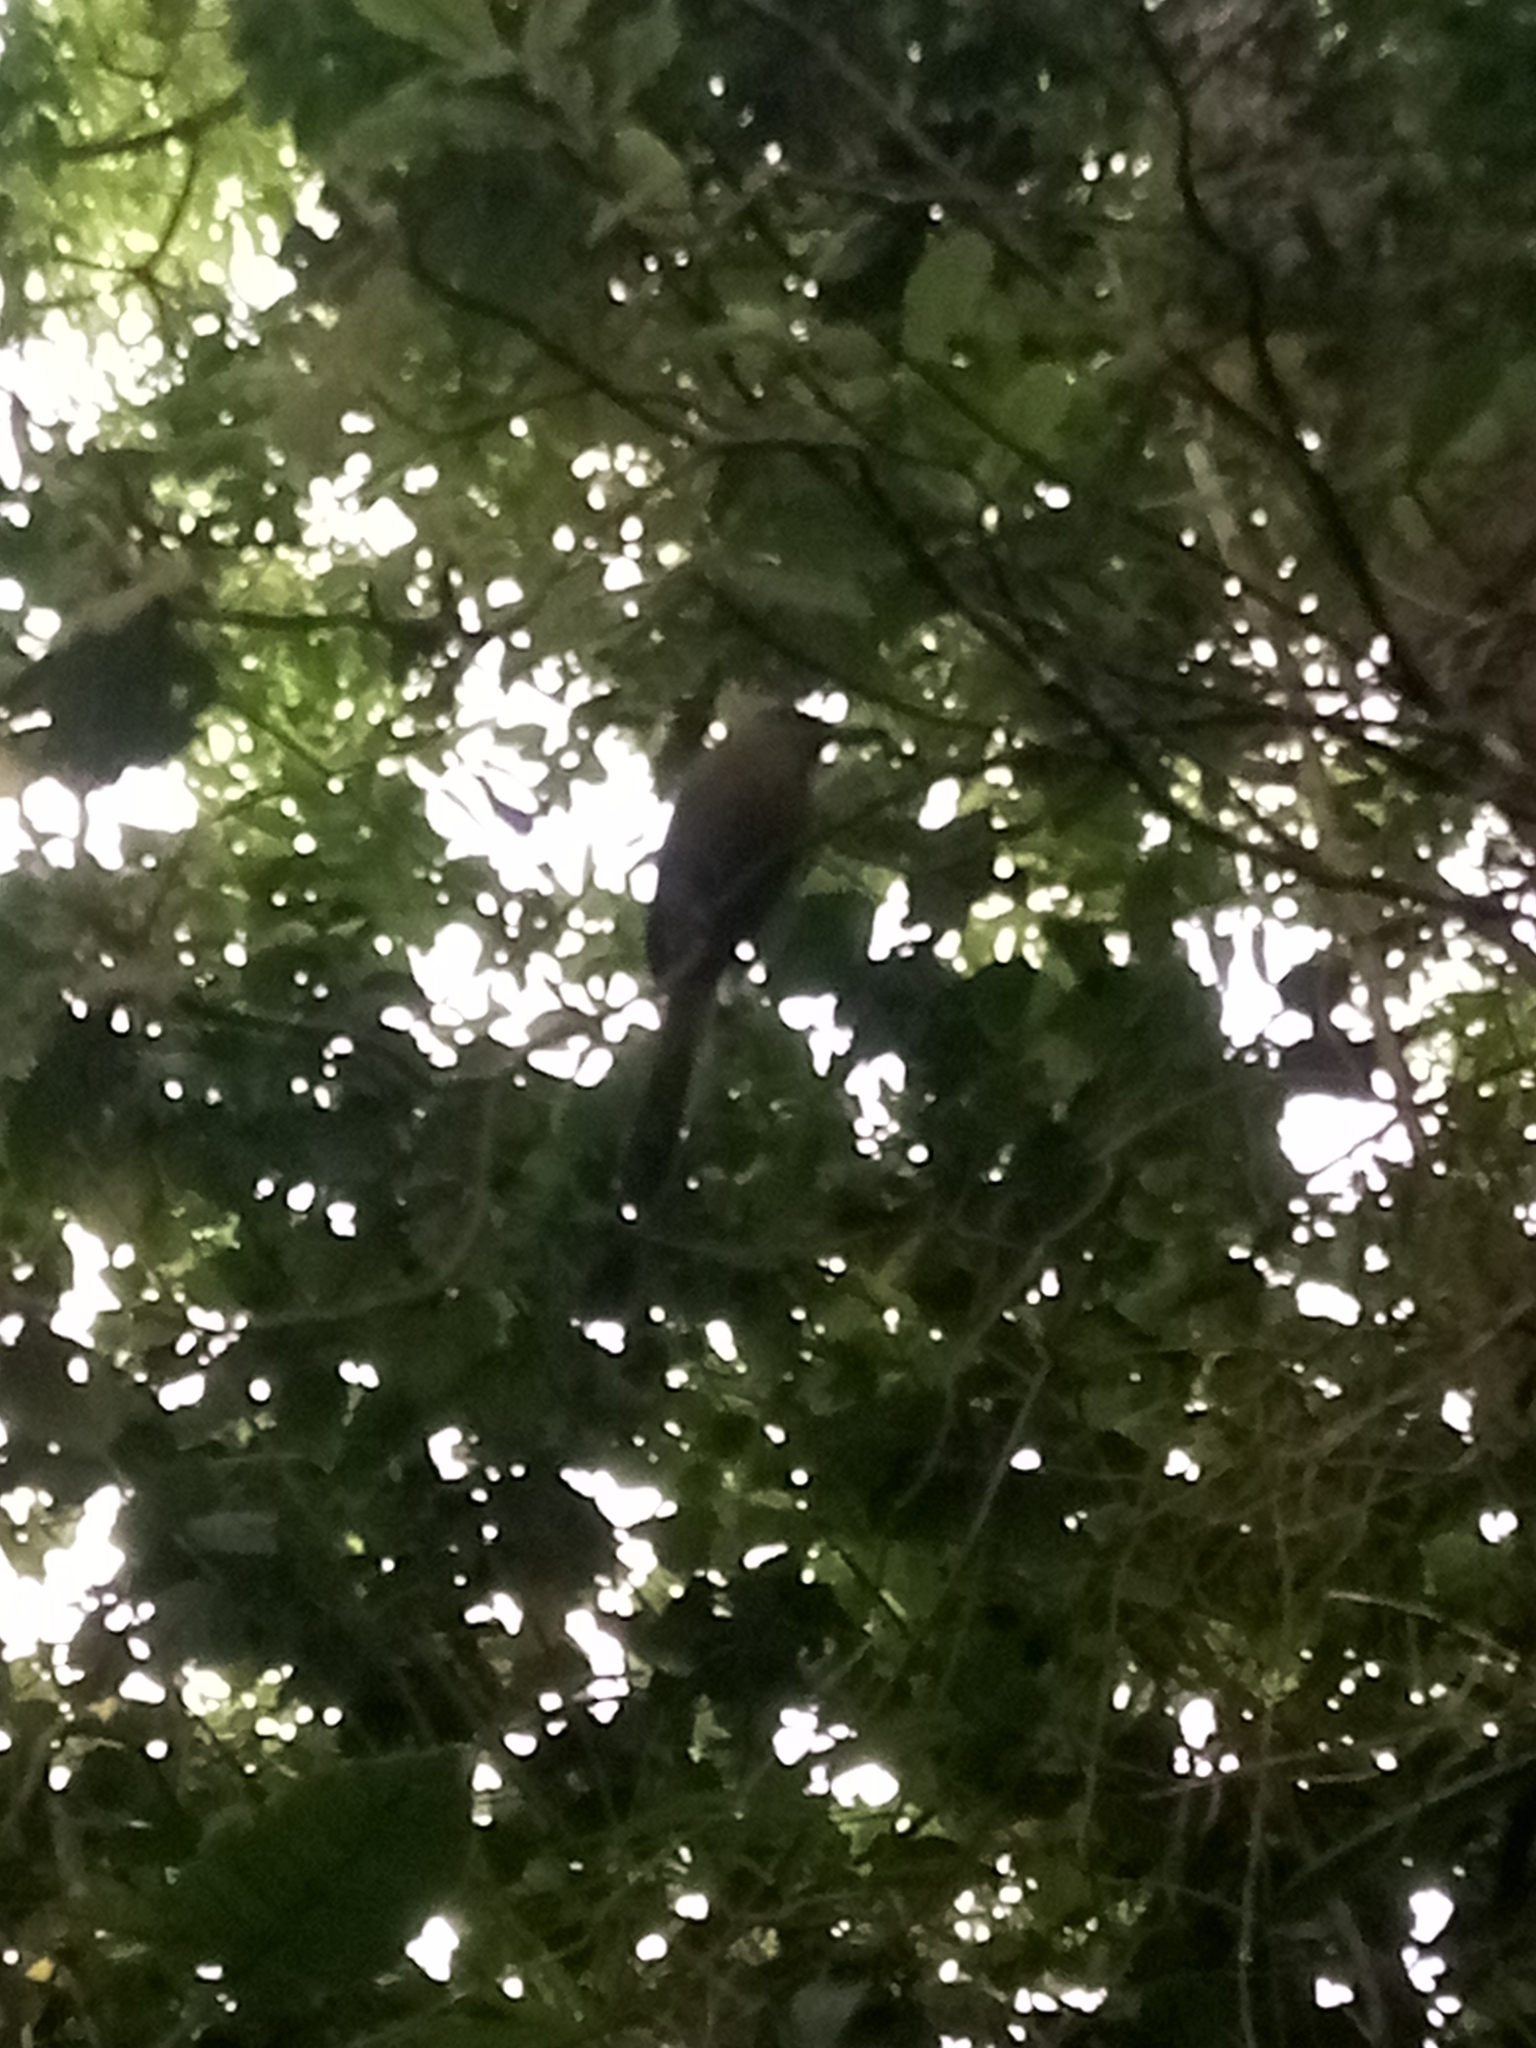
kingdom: Animalia
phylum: Chordata
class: Aves
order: Coraciiformes
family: Momotidae
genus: Momotus
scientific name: Momotus lessonii
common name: Lesson's motmot
